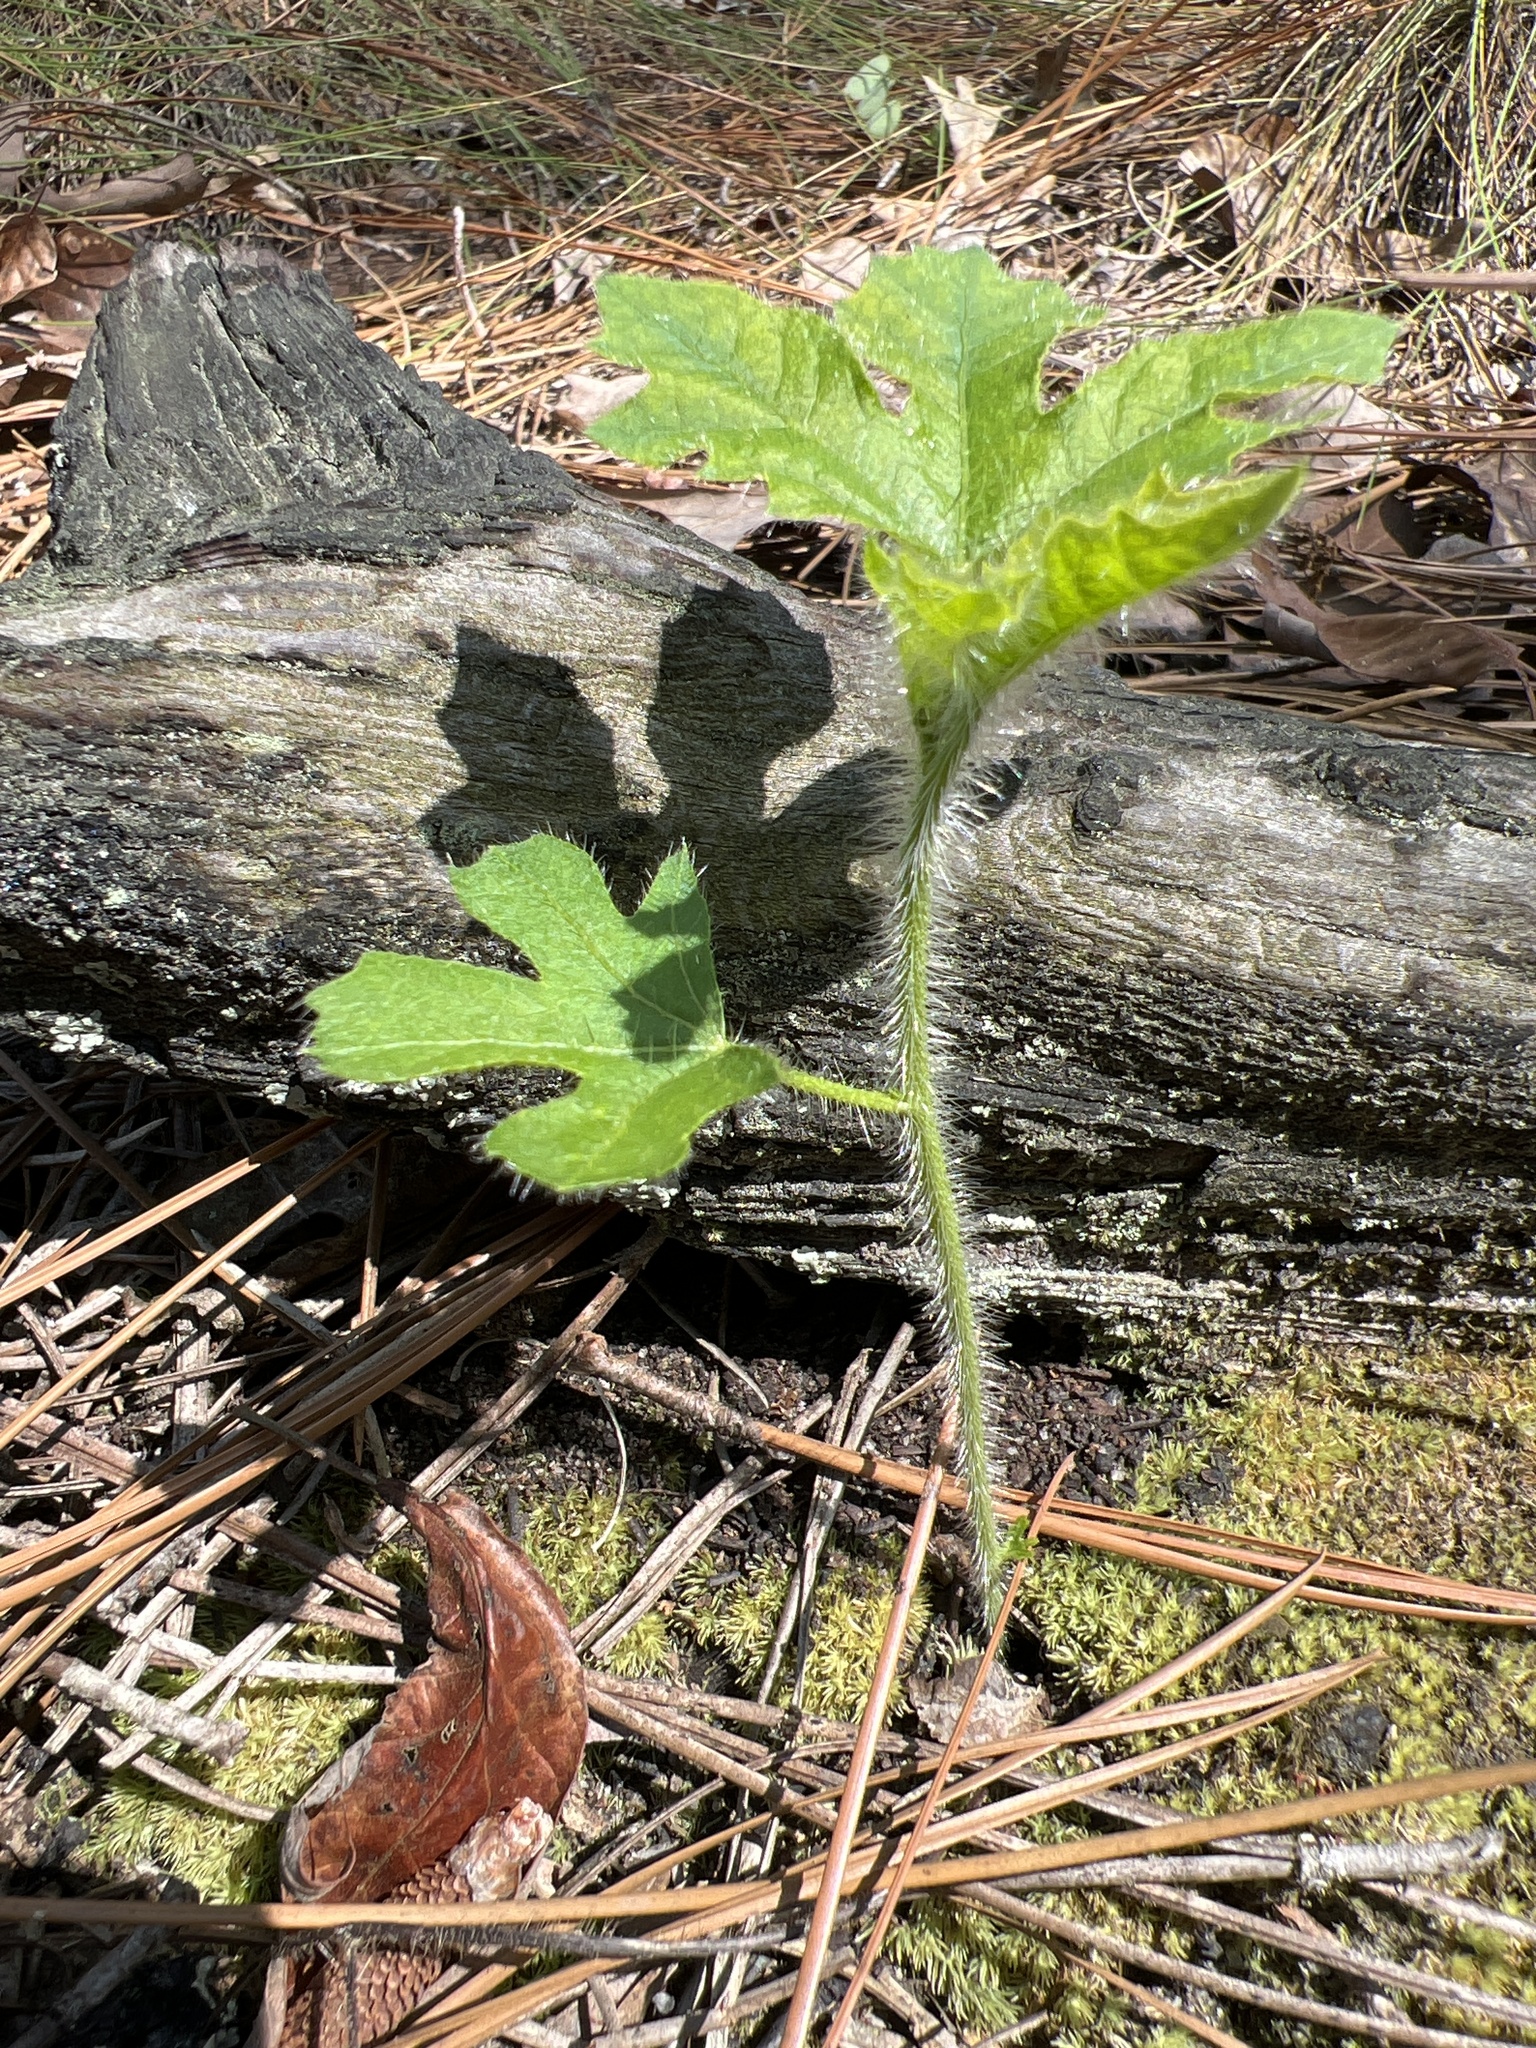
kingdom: Plantae
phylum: Tracheophyta
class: Magnoliopsida
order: Malpighiales
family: Euphorbiaceae
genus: Cnidoscolus
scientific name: Cnidoscolus stimulosus
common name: Bull-nettle
